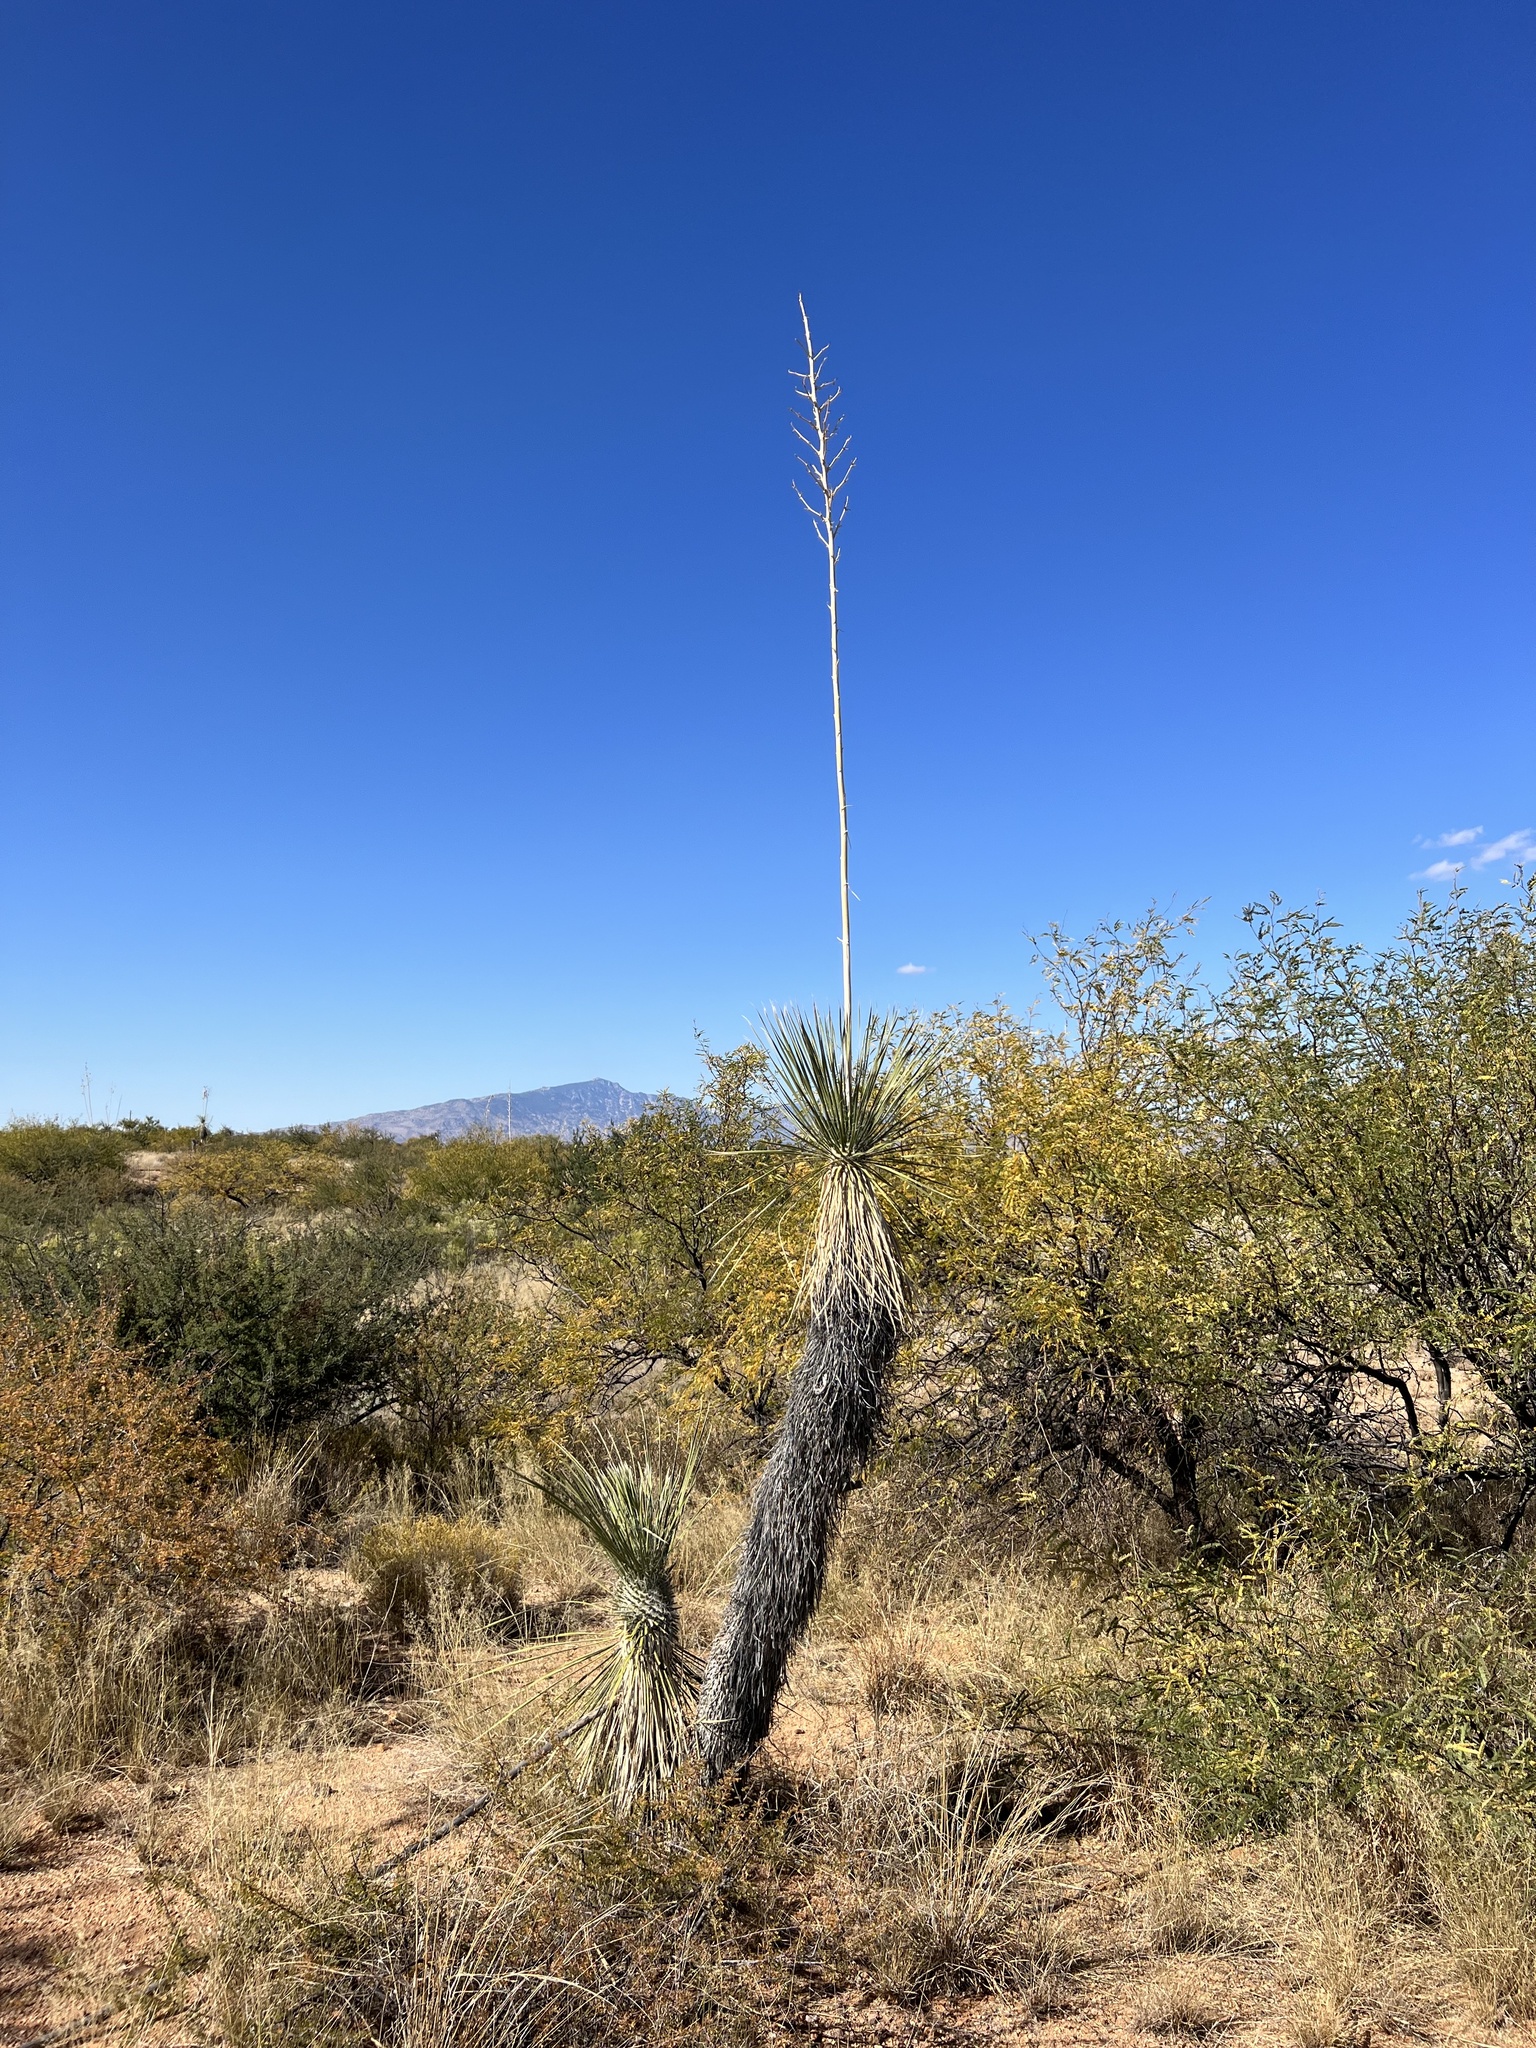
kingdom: Plantae
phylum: Tracheophyta
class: Liliopsida
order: Asparagales
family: Asparagaceae
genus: Yucca
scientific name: Yucca elata
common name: Palmella
